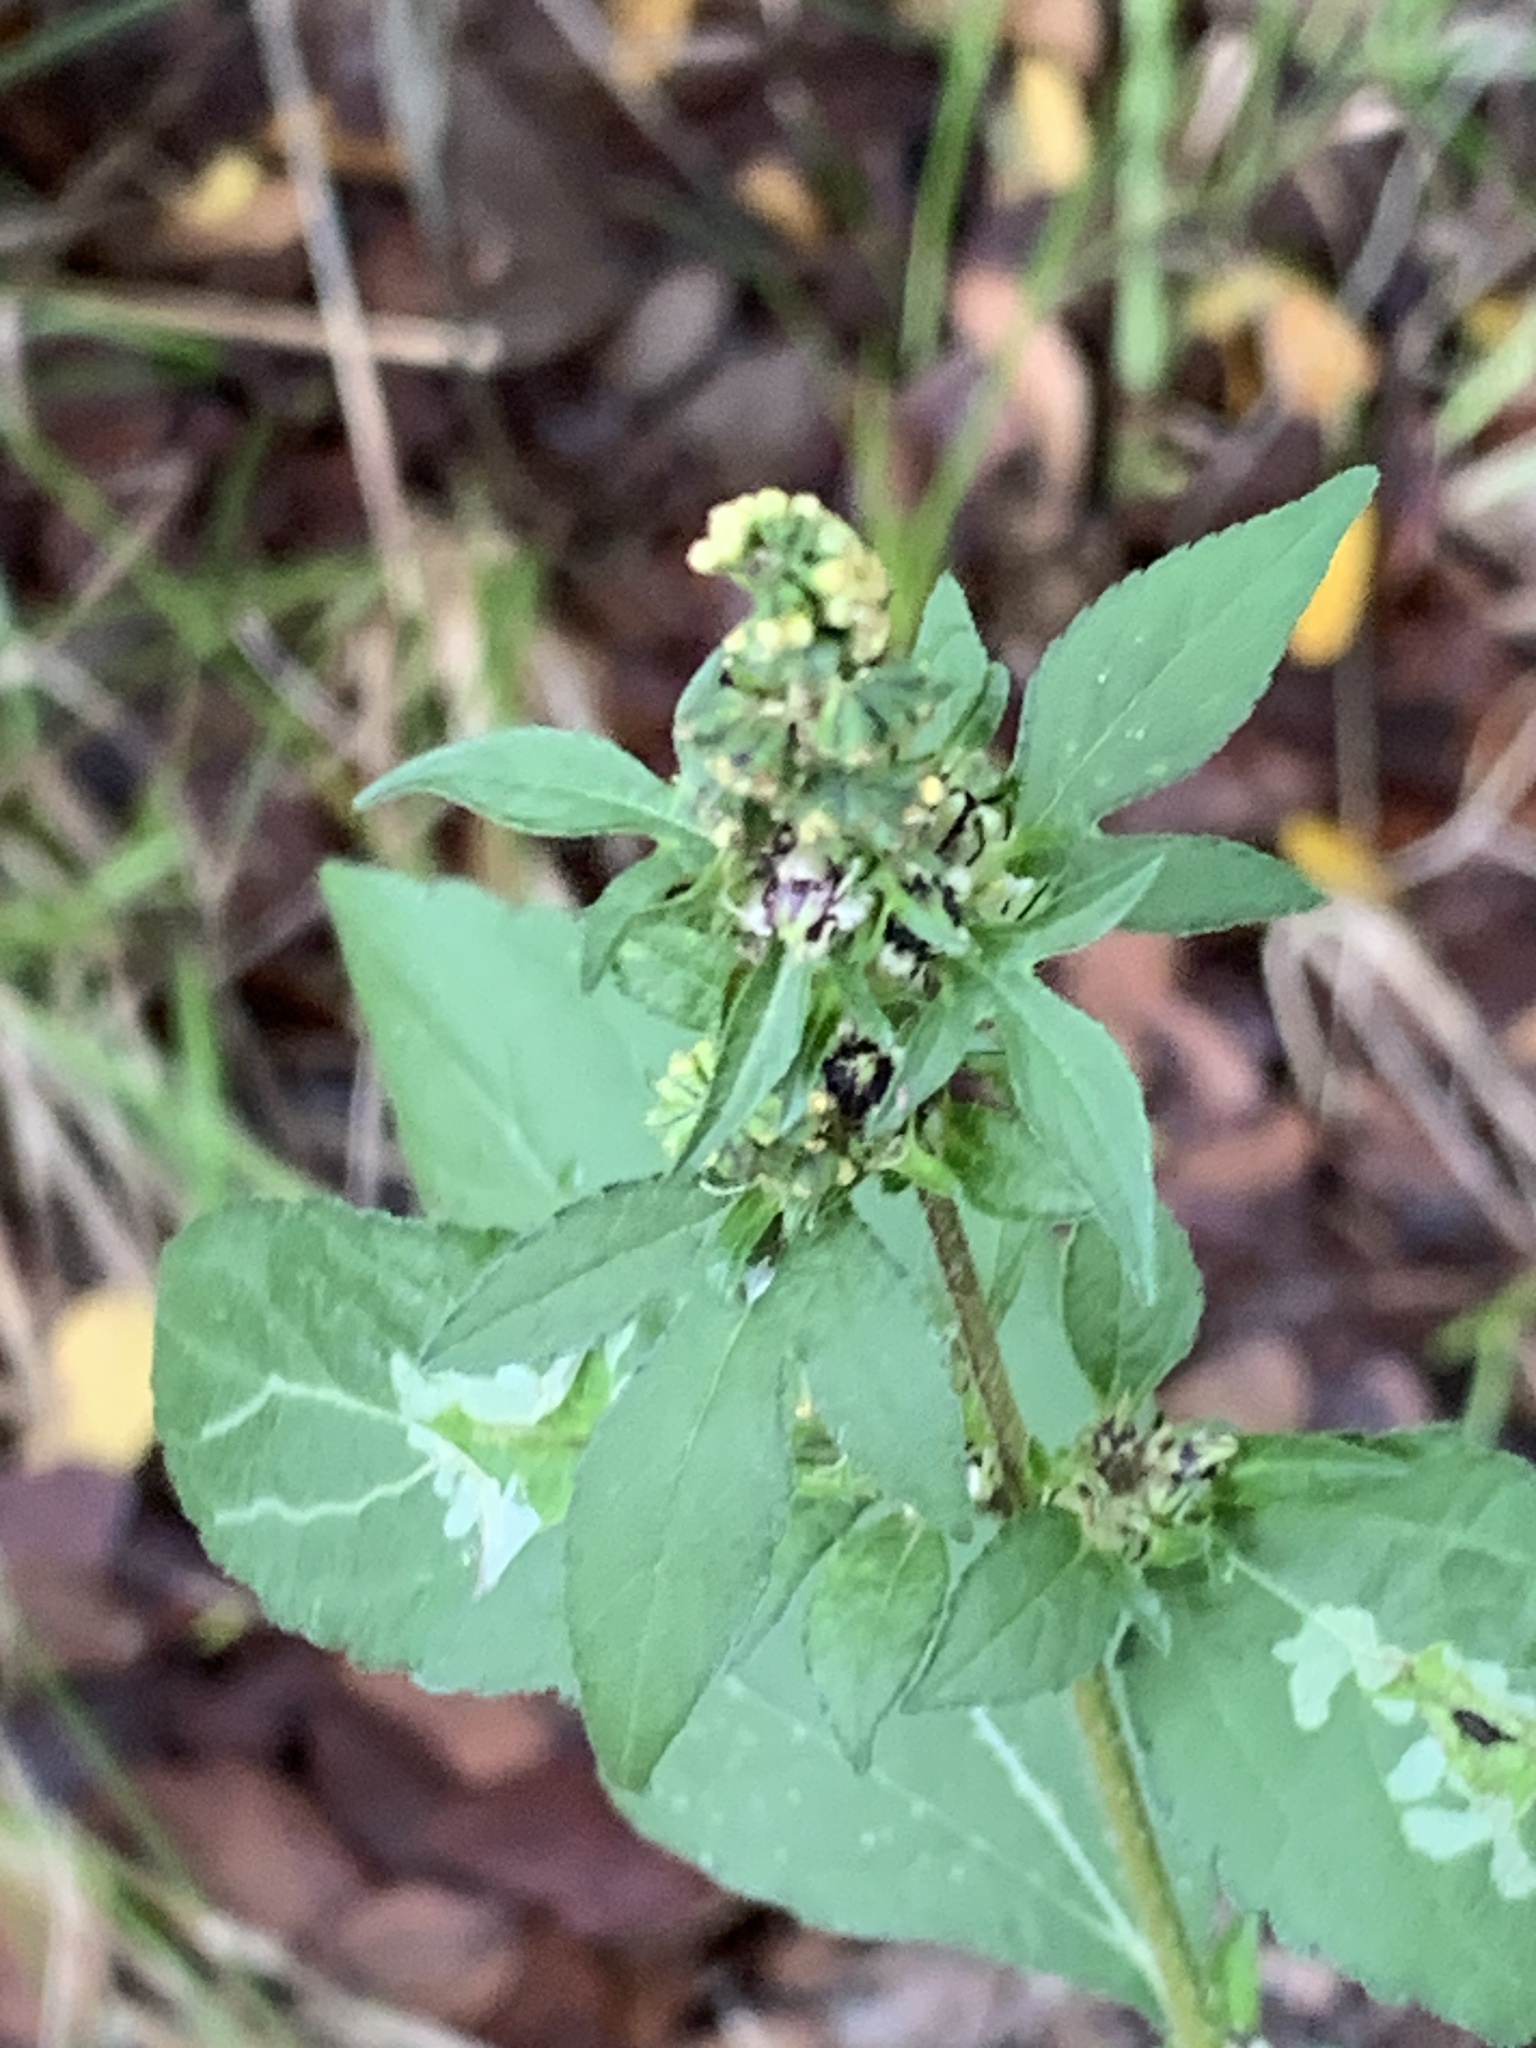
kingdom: Plantae
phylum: Tracheophyta
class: Magnoliopsida
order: Asterales
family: Asteraceae
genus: Ambrosia
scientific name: Ambrosia trifida
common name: Giant ragweed
